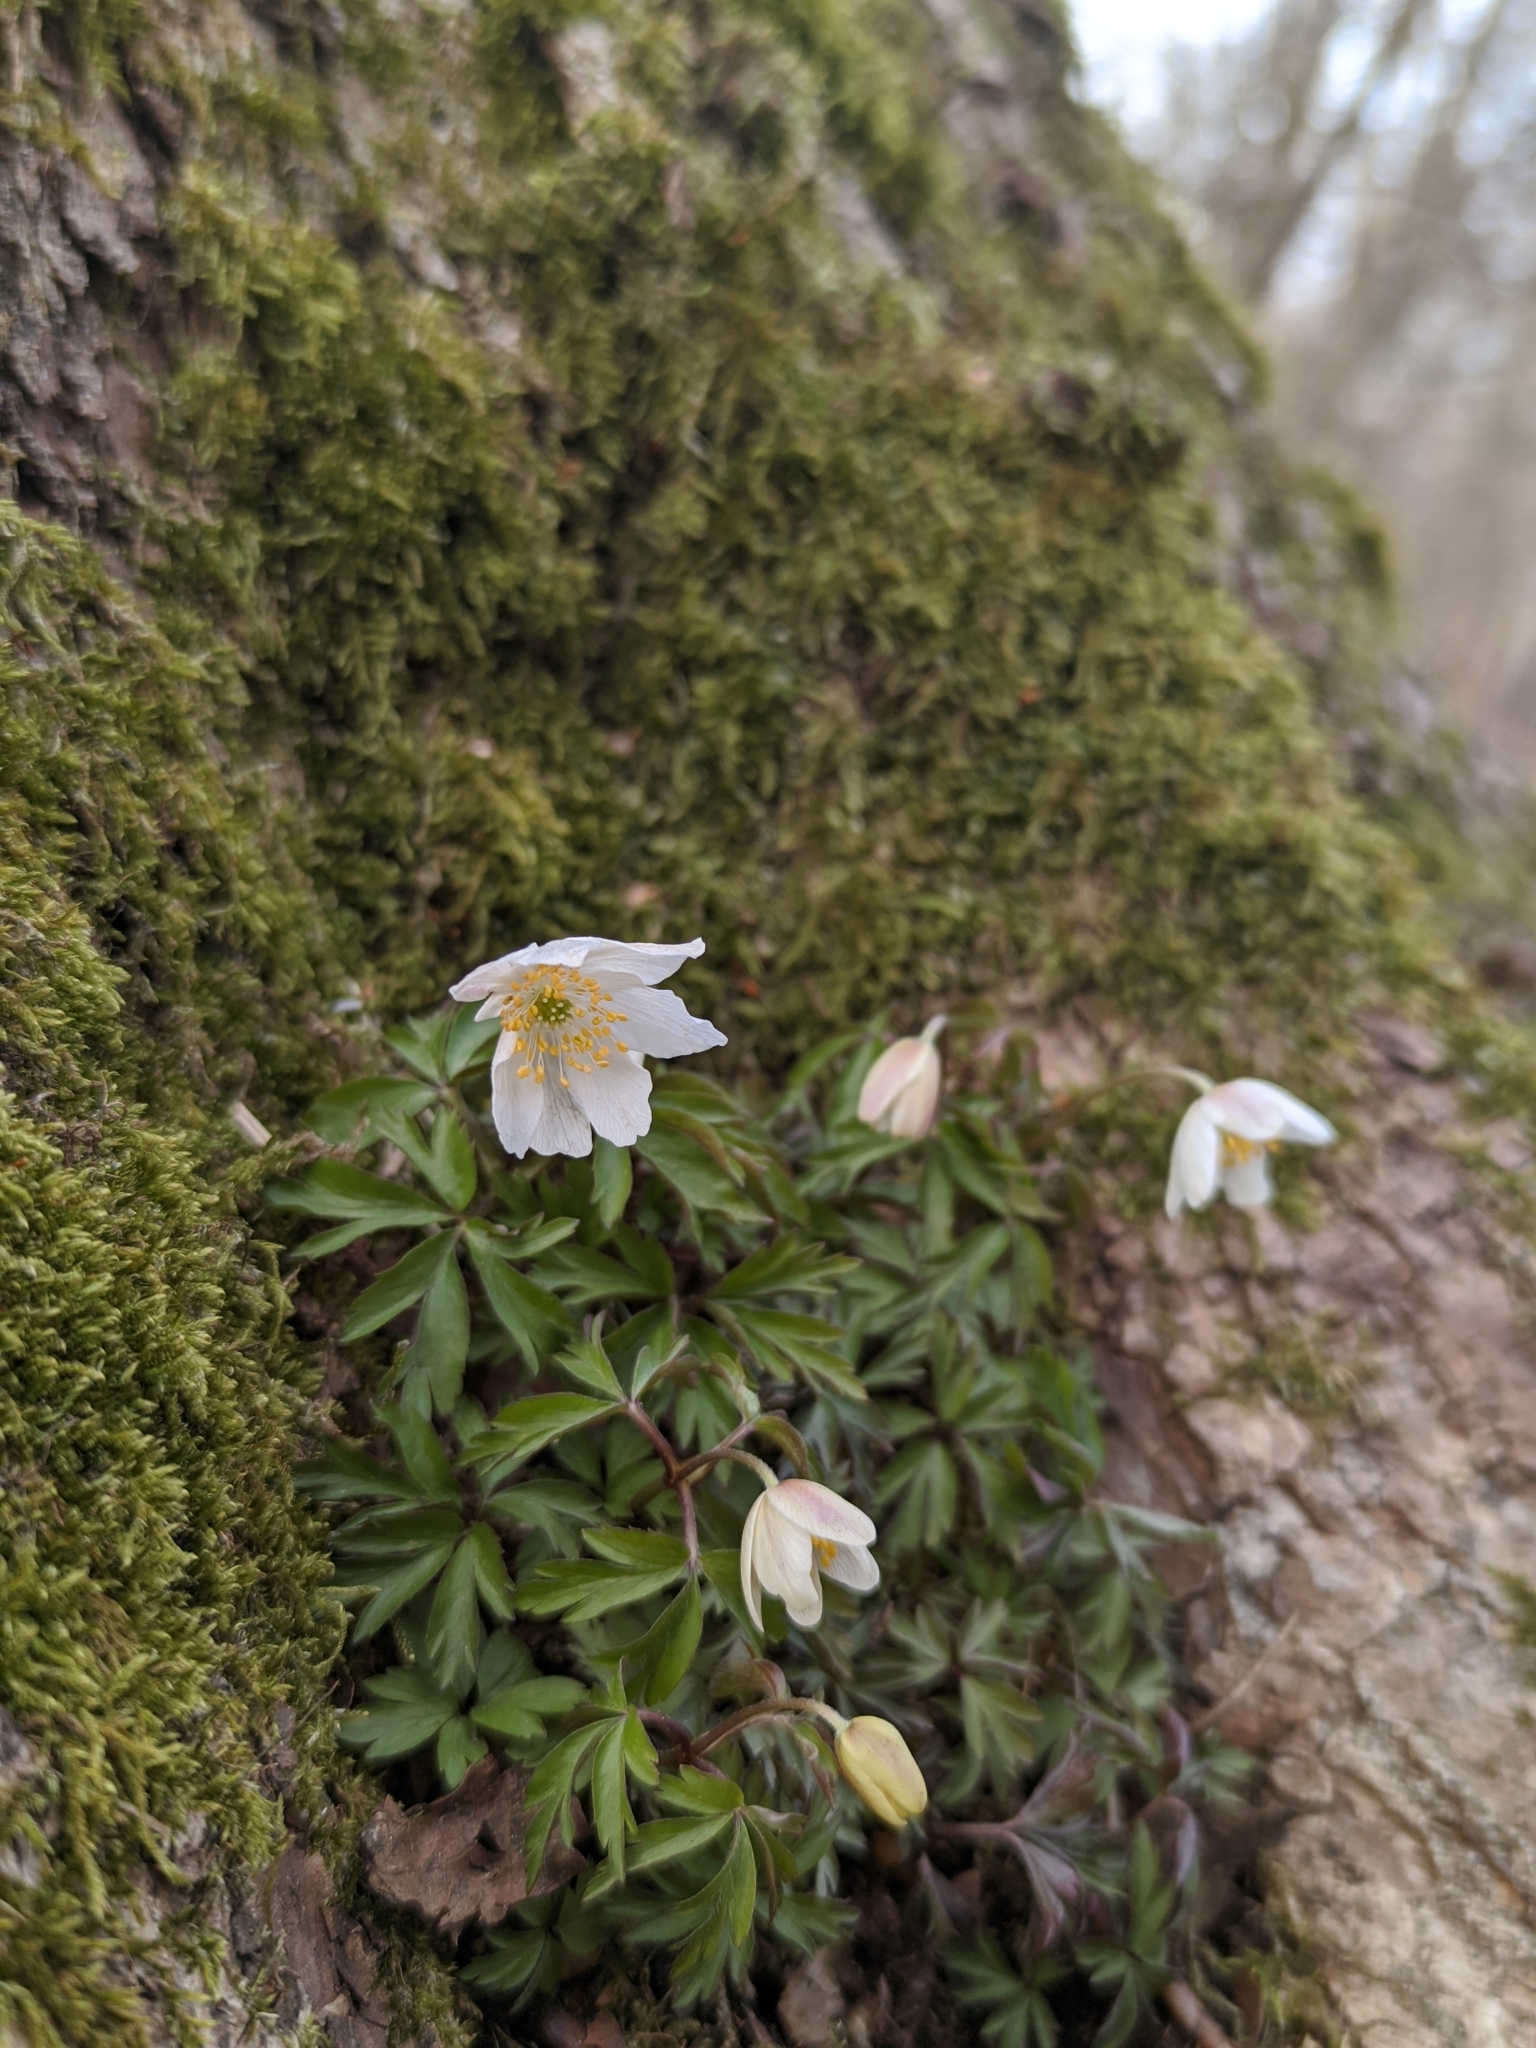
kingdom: Plantae
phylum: Tracheophyta
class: Magnoliopsida
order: Ranunculales
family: Ranunculaceae
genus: Anemone
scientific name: Anemone nemorosa
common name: Wood anemone
